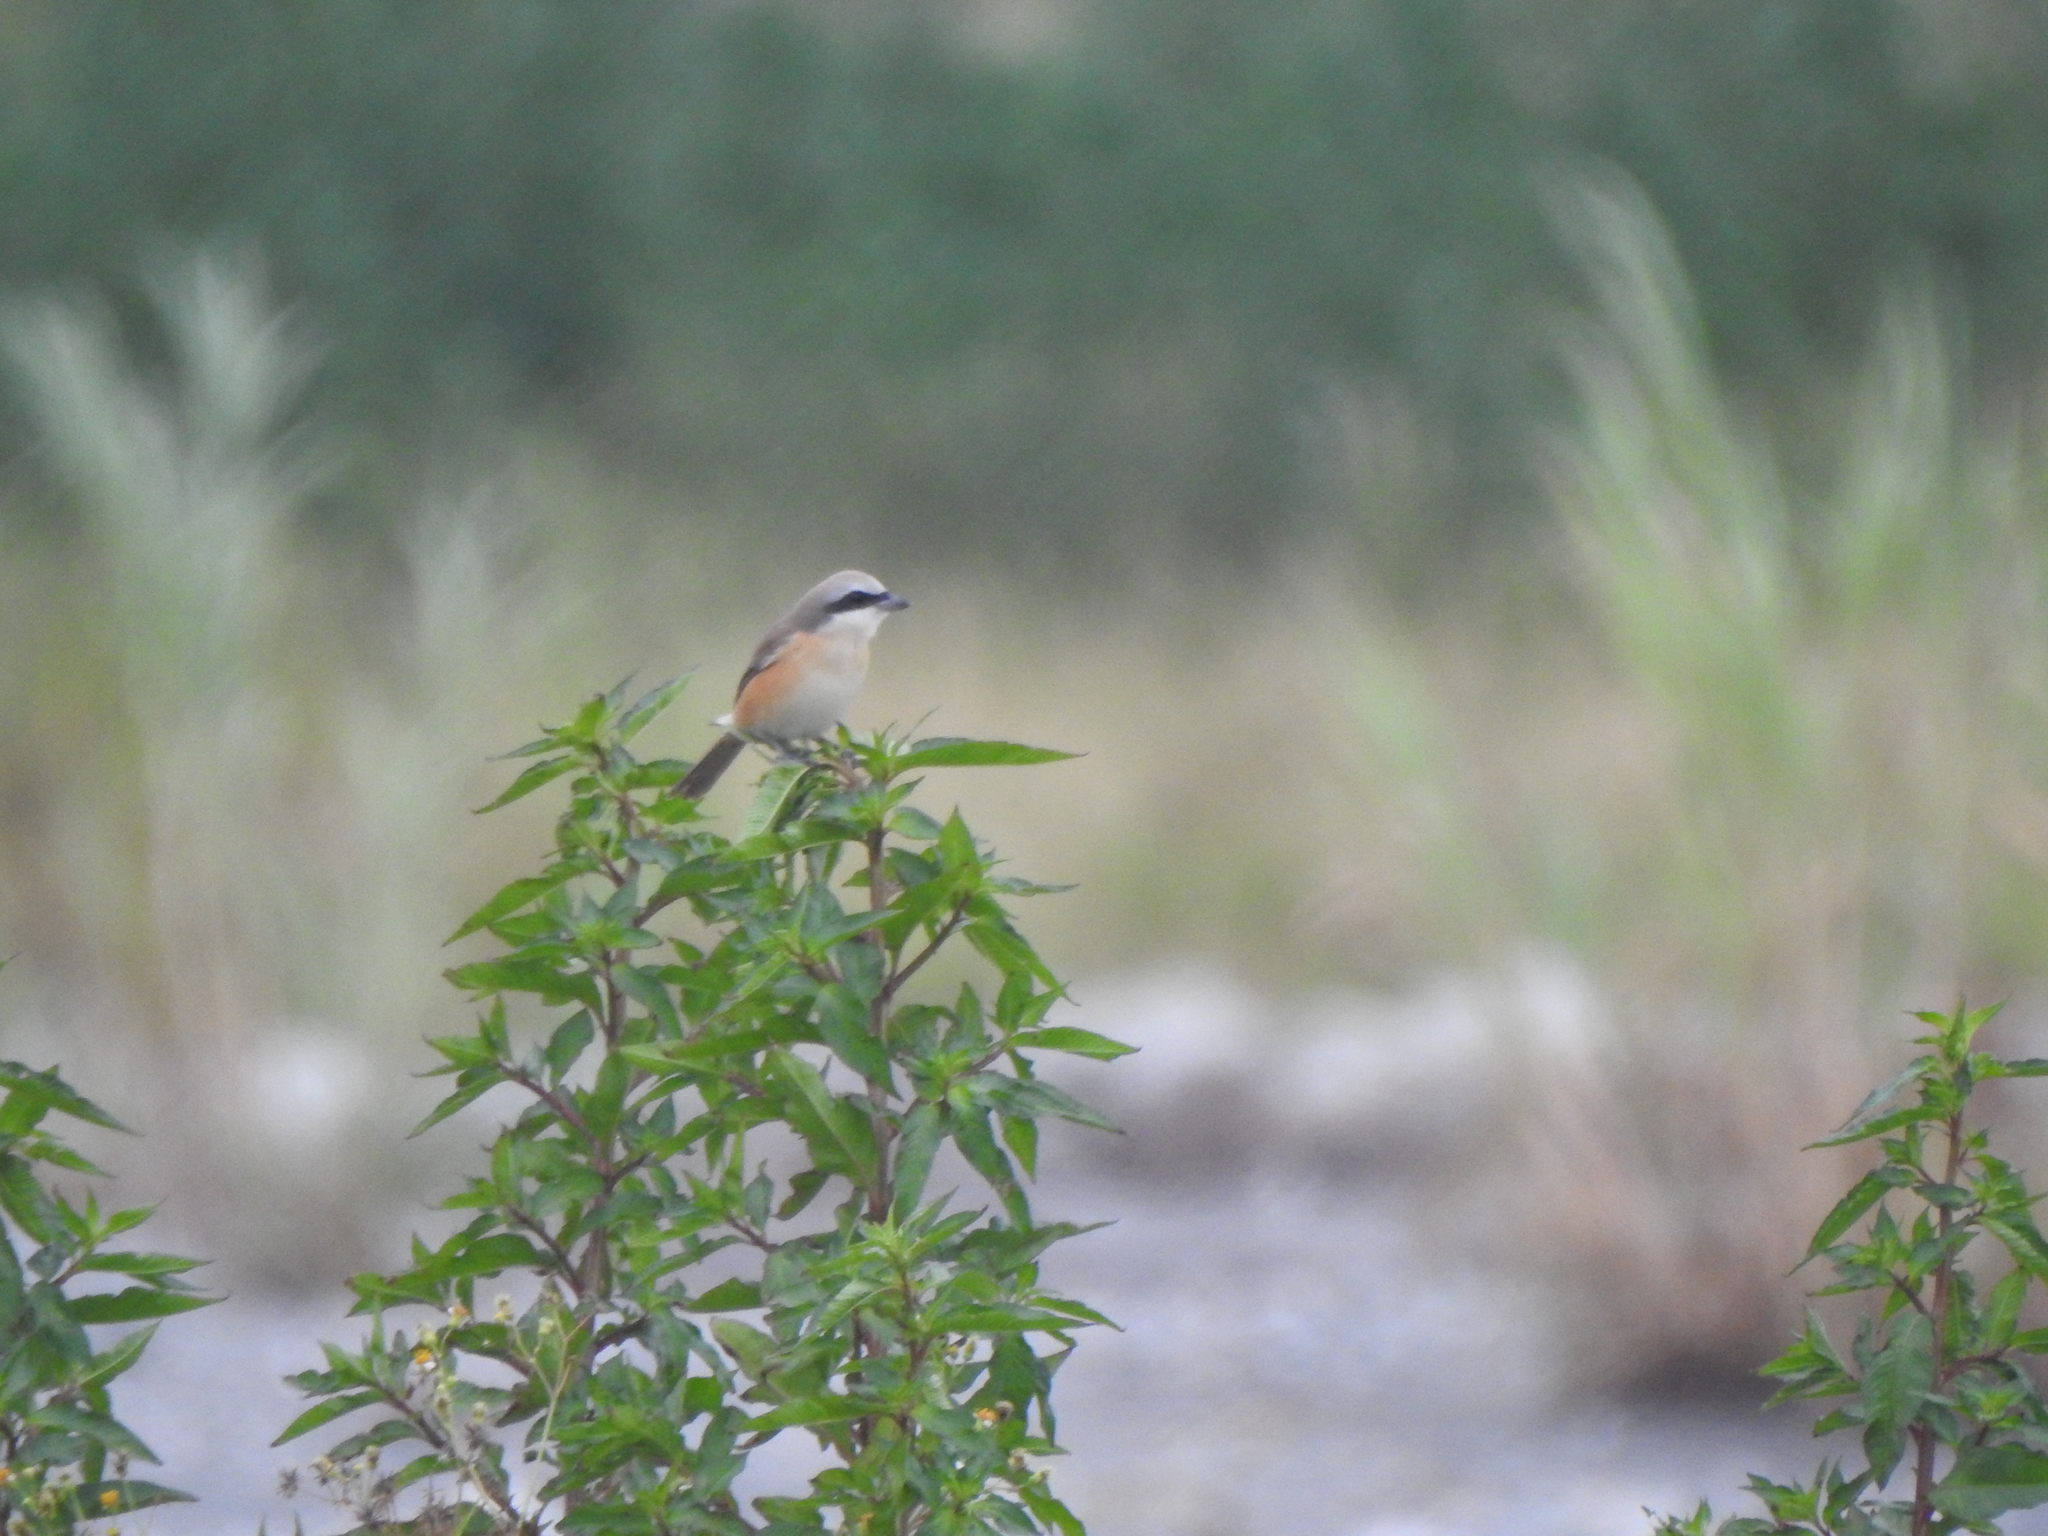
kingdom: Animalia
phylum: Chordata
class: Aves
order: Passeriformes
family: Laniidae
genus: Lanius
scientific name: Lanius cristatus
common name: Brown shrike
